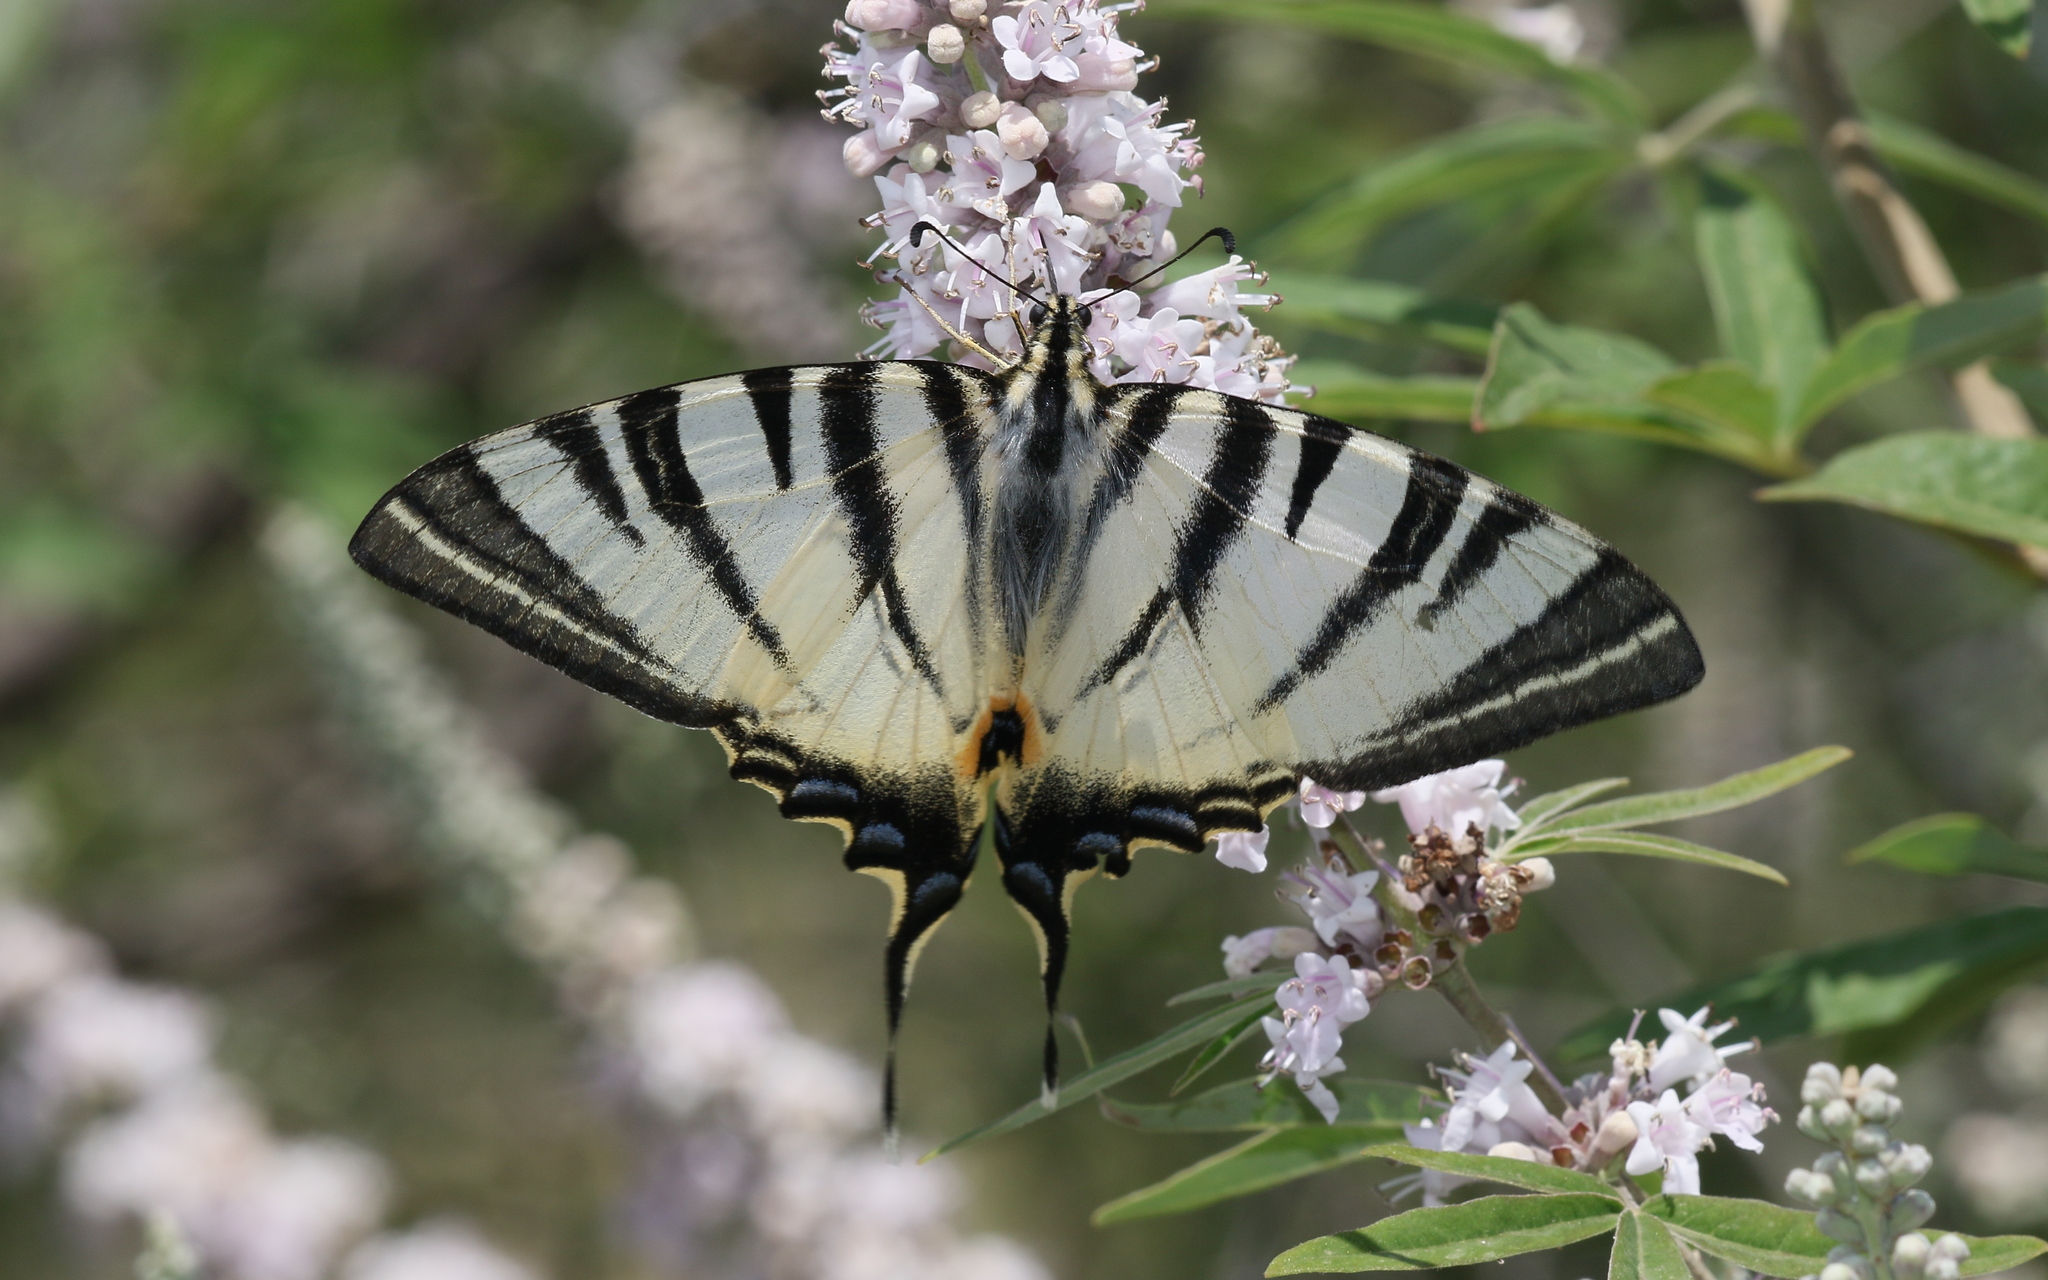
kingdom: Animalia
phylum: Arthropoda
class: Insecta
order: Lepidoptera
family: Papilionidae
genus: Iphiclides
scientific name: Iphiclides podalirius
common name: Scarce swallowtail
